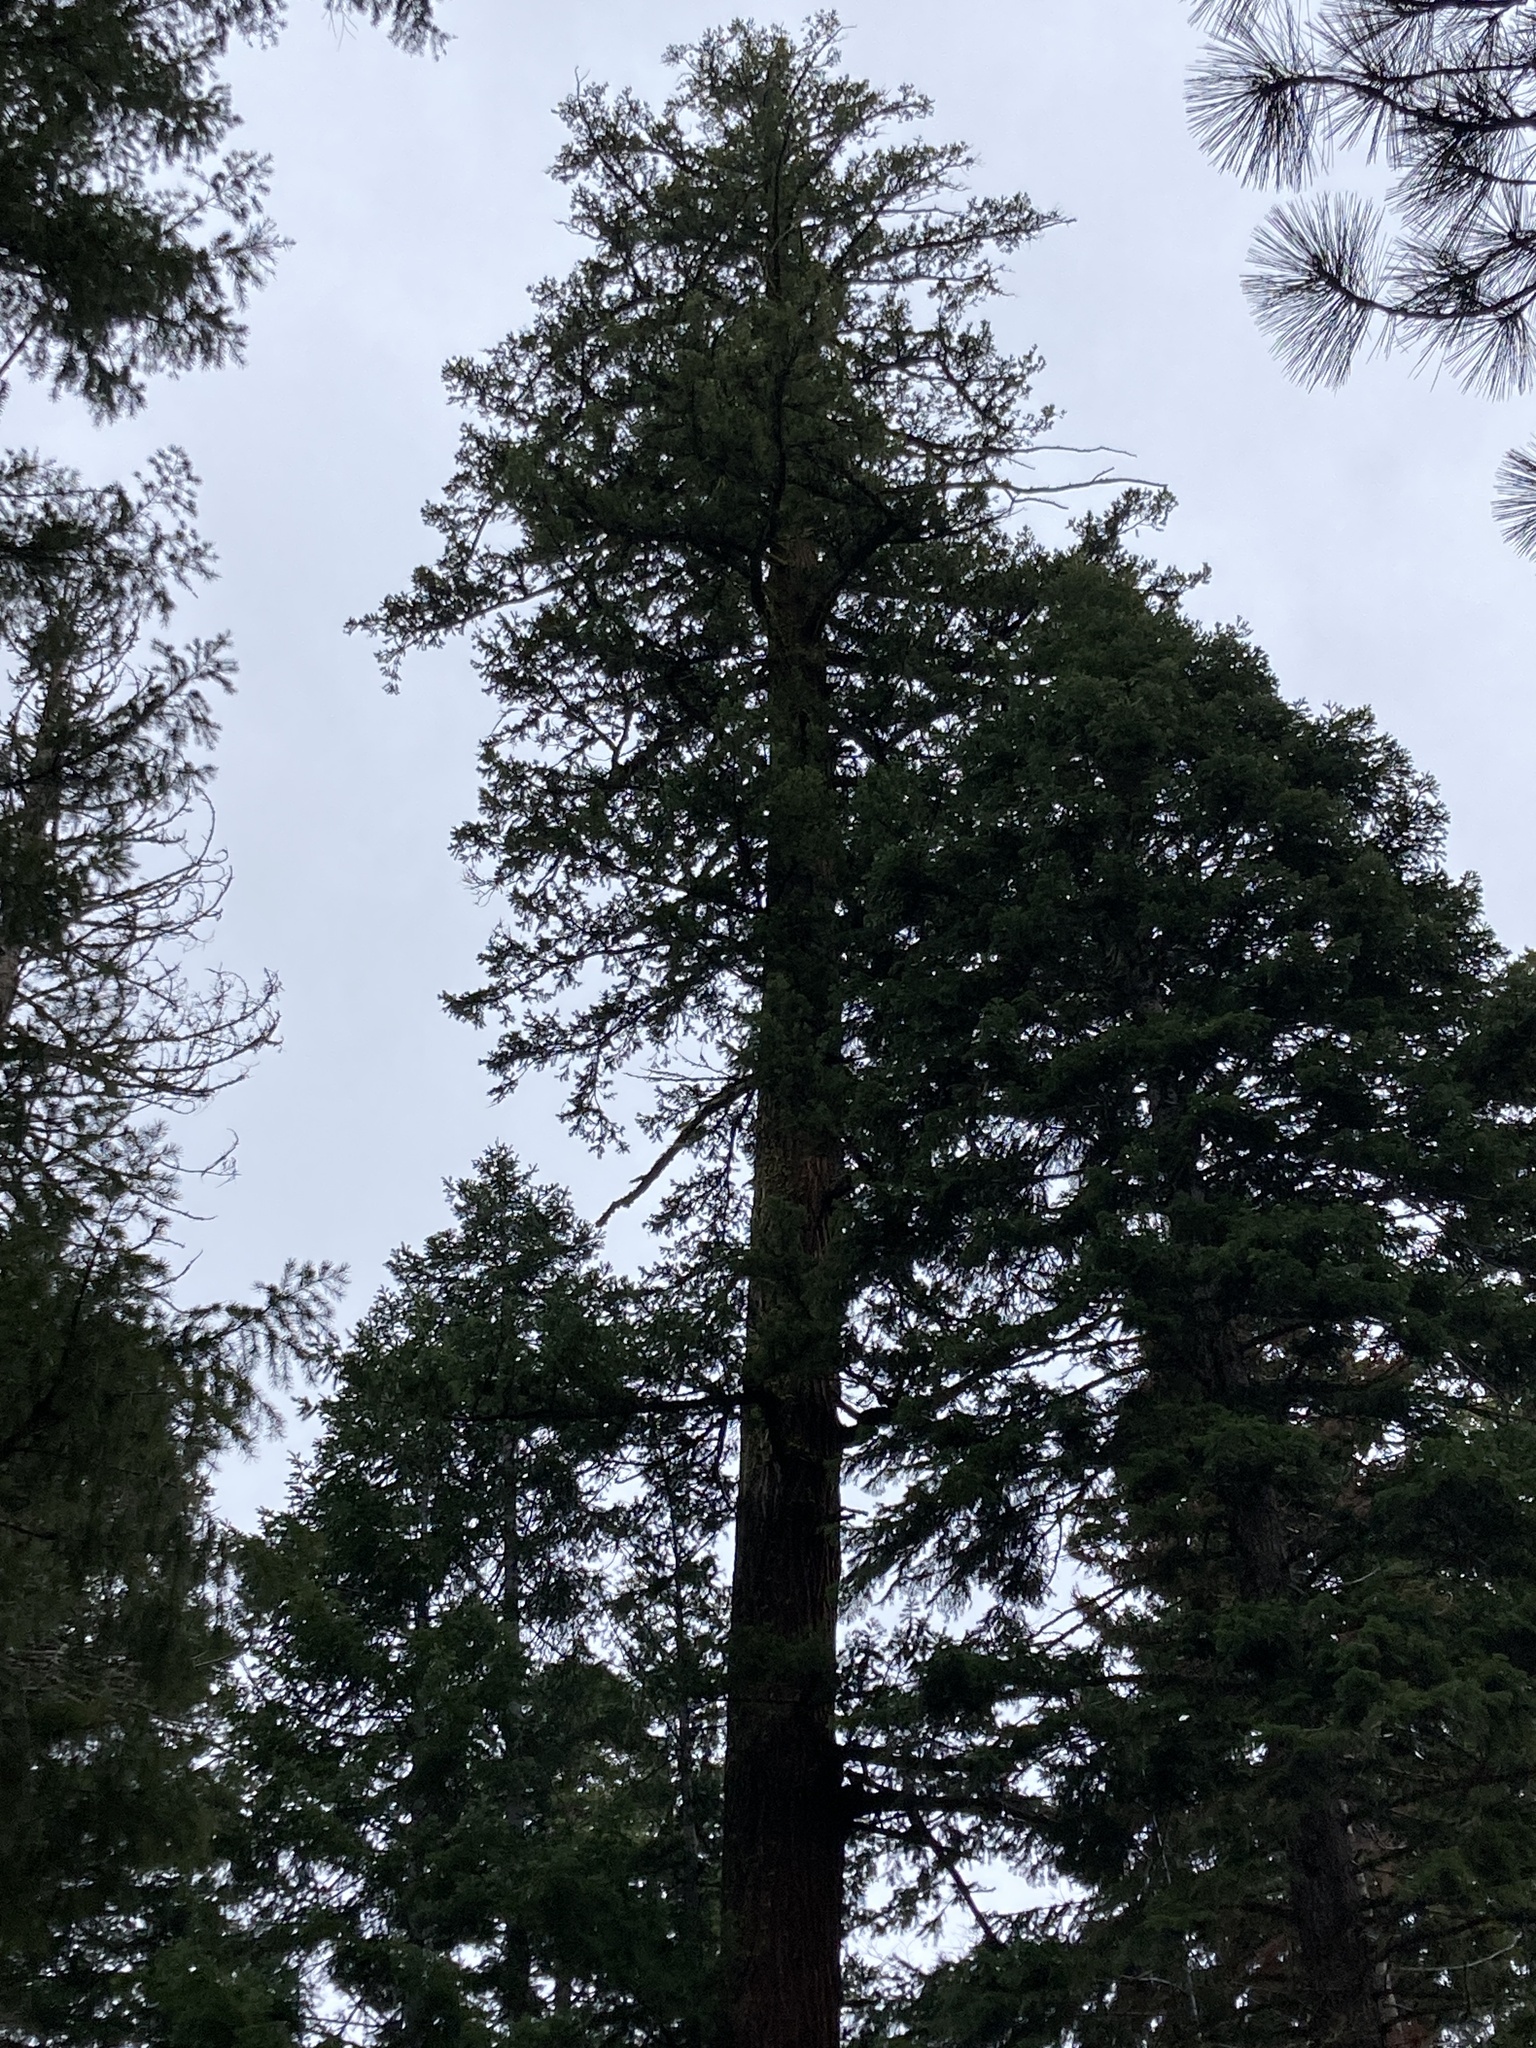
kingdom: Plantae
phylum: Tracheophyta
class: Pinopsida
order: Pinales
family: Pinaceae
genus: Pseudotsuga
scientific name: Pseudotsuga menziesii
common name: Douglas fir
